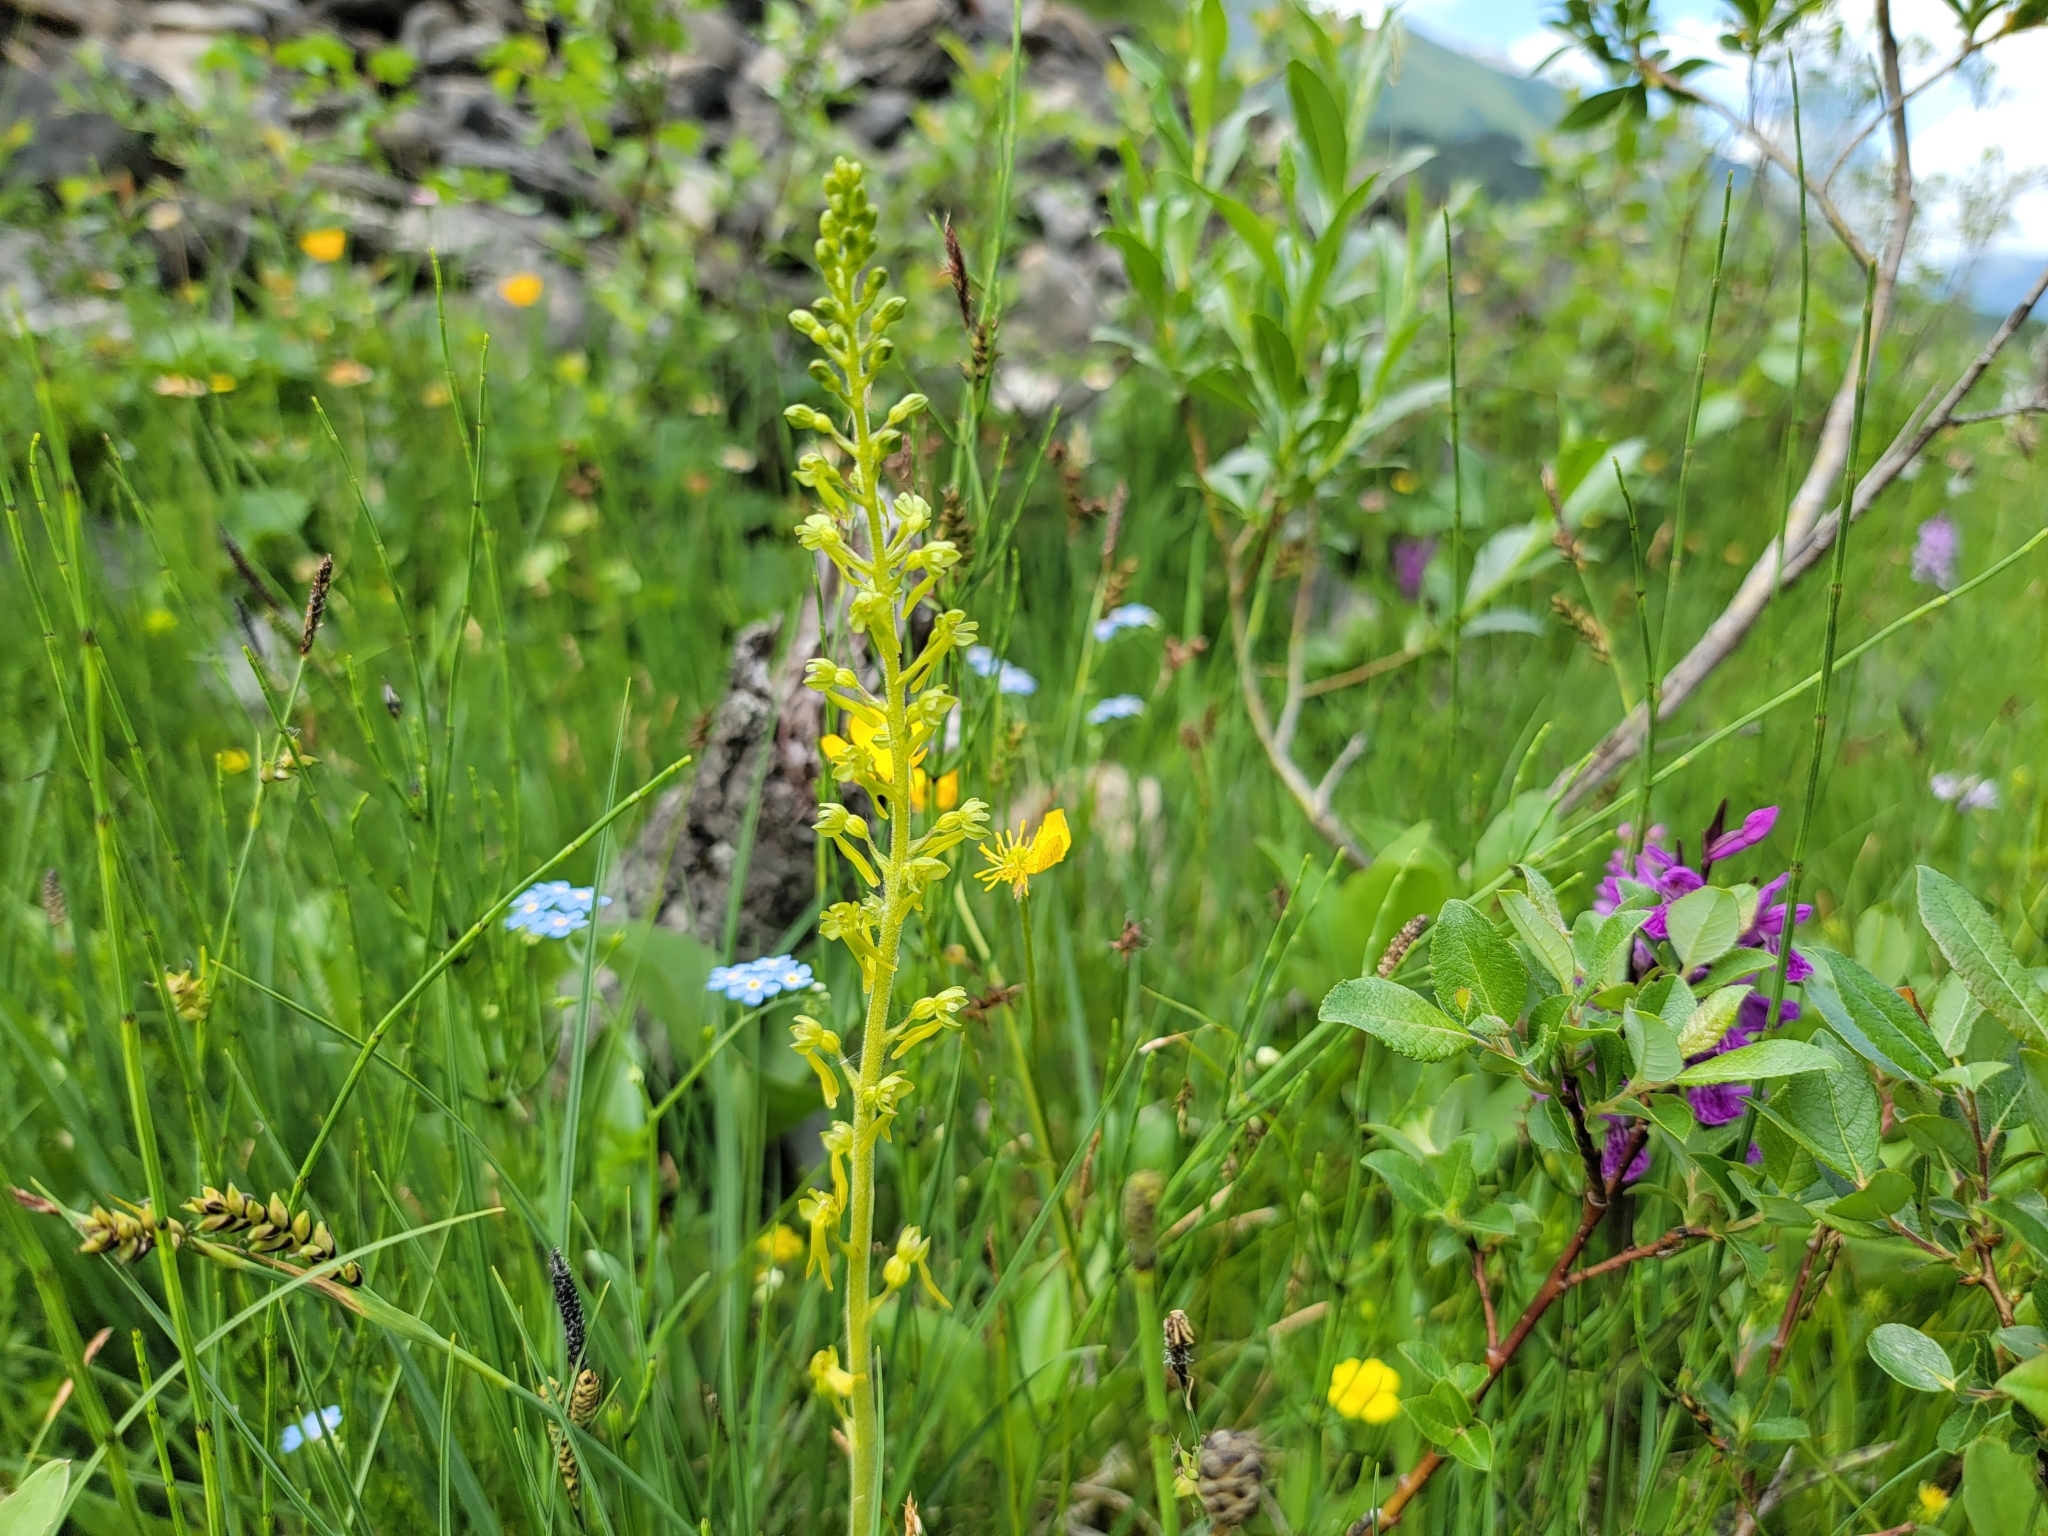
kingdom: Plantae
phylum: Tracheophyta
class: Liliopsida
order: Asparagales
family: Orchidaceae
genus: Neottia
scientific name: Neottia ovata
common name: Common twayblade
